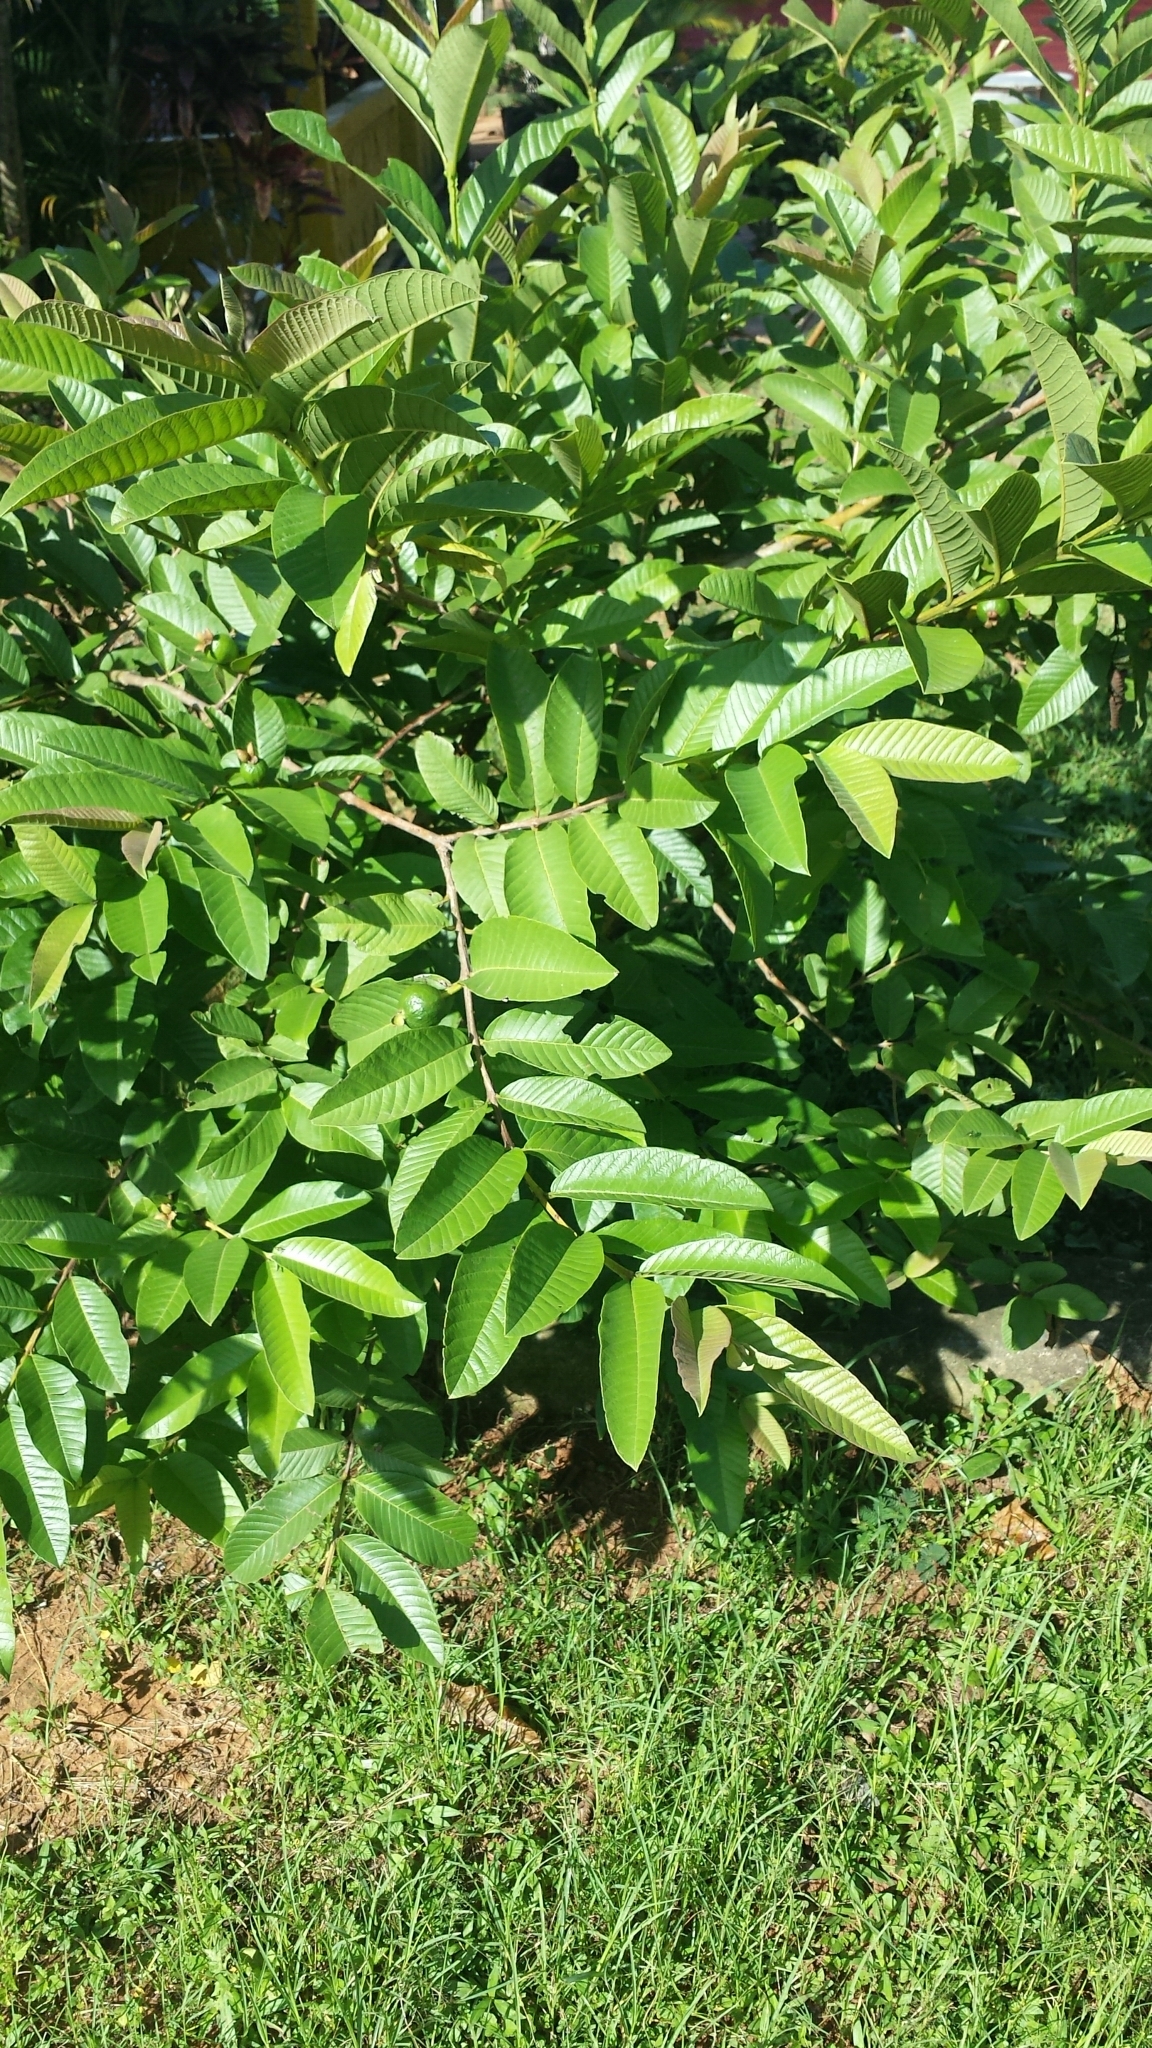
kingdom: Plantae
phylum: Tracheophyta
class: Magnoliopsida
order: Myrtales
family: Myrtaceae
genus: Psidium
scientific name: Psidium guajava
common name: Guava
